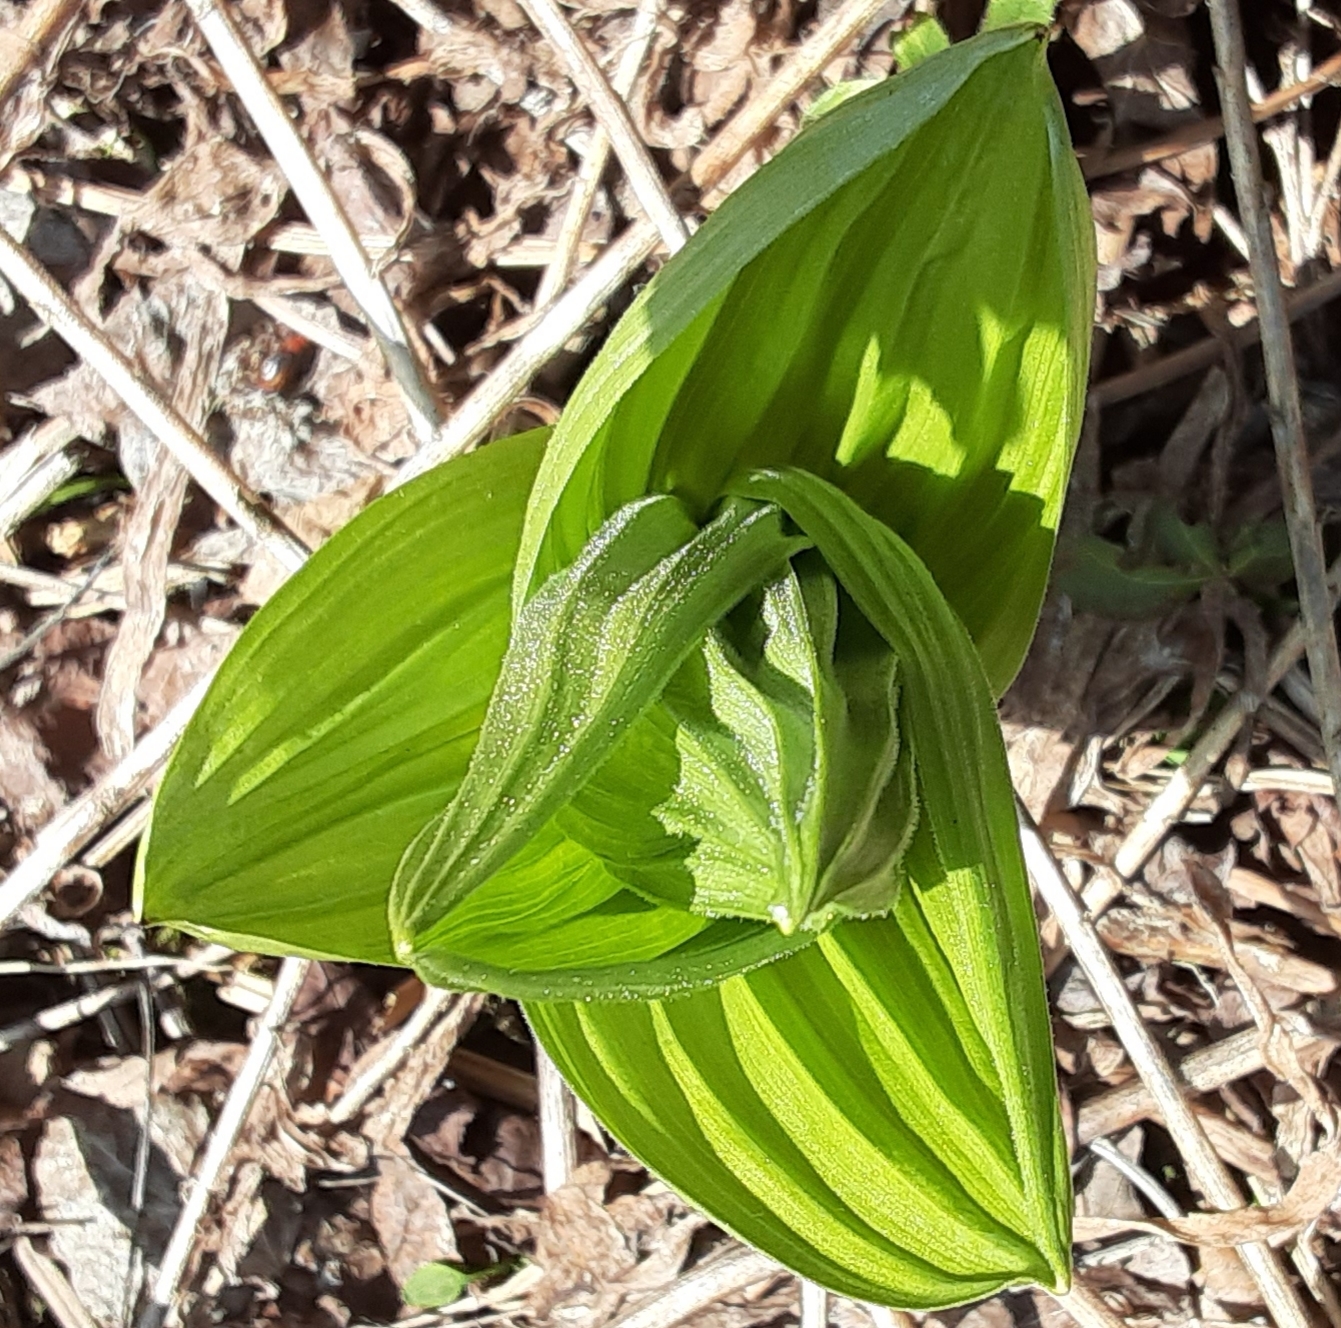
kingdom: Plantae
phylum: Tracheophyta
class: Liliopsida
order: Liliales
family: Melanthiaceae
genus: Veratrum
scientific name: Veratrum viride
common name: American false hellebore
